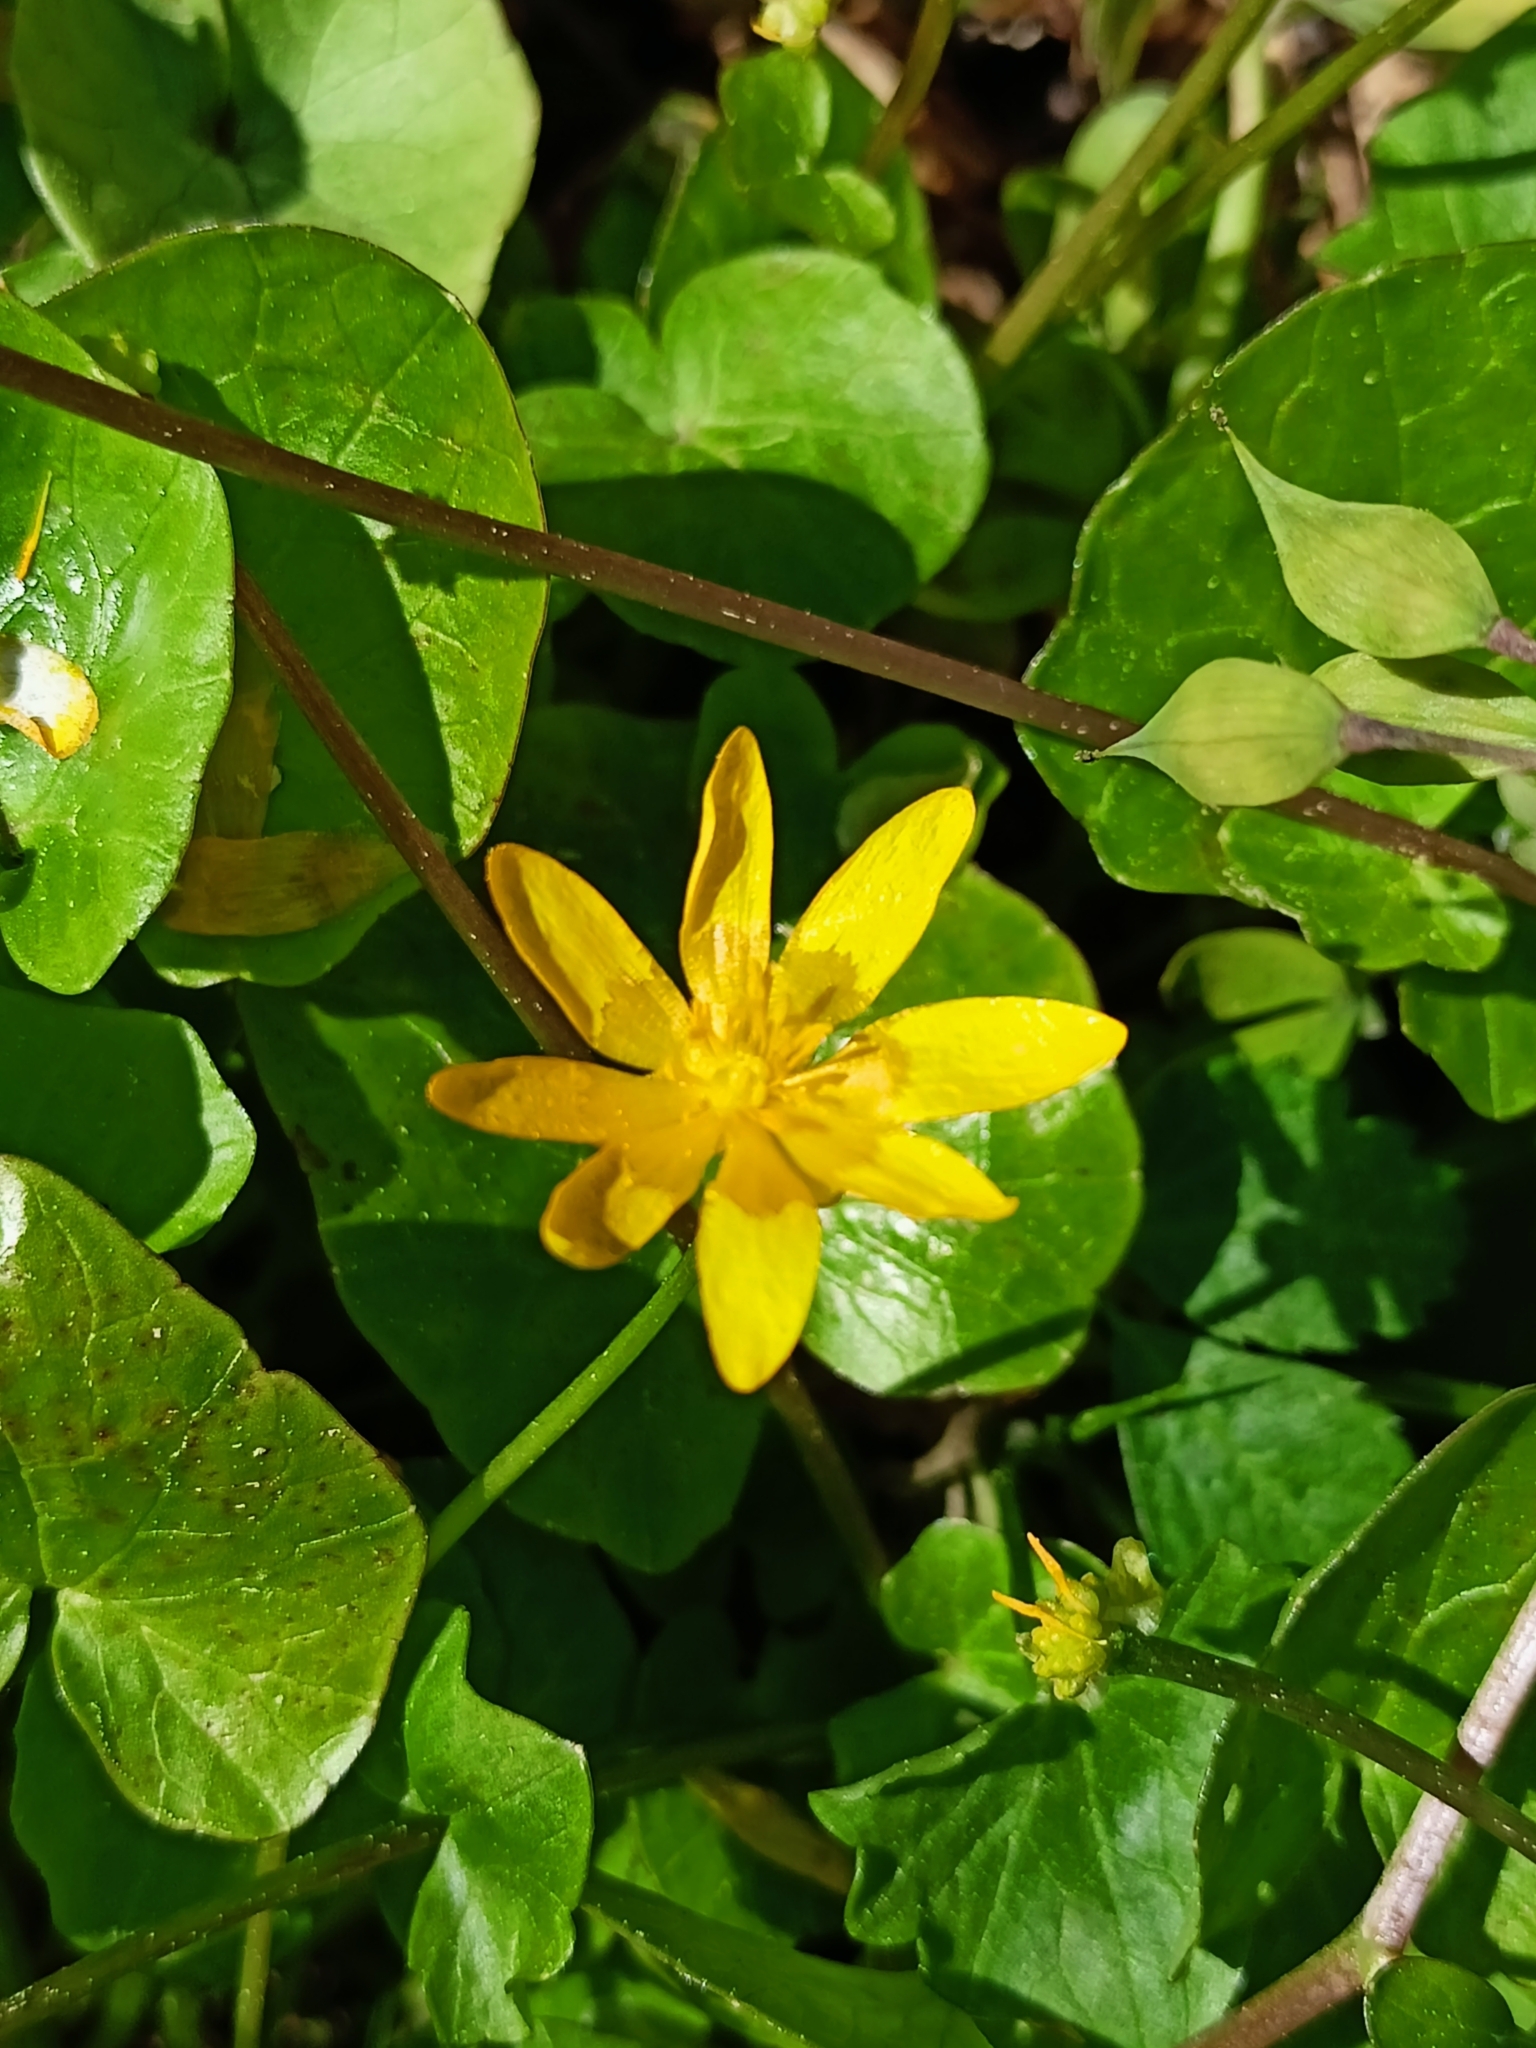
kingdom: Plantae
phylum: Tracheophyta
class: Magnoliopsida
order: Ranunculales
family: Ranunculaceae
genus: Ficaria
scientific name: Ficaria verna
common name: Lesser celandine
